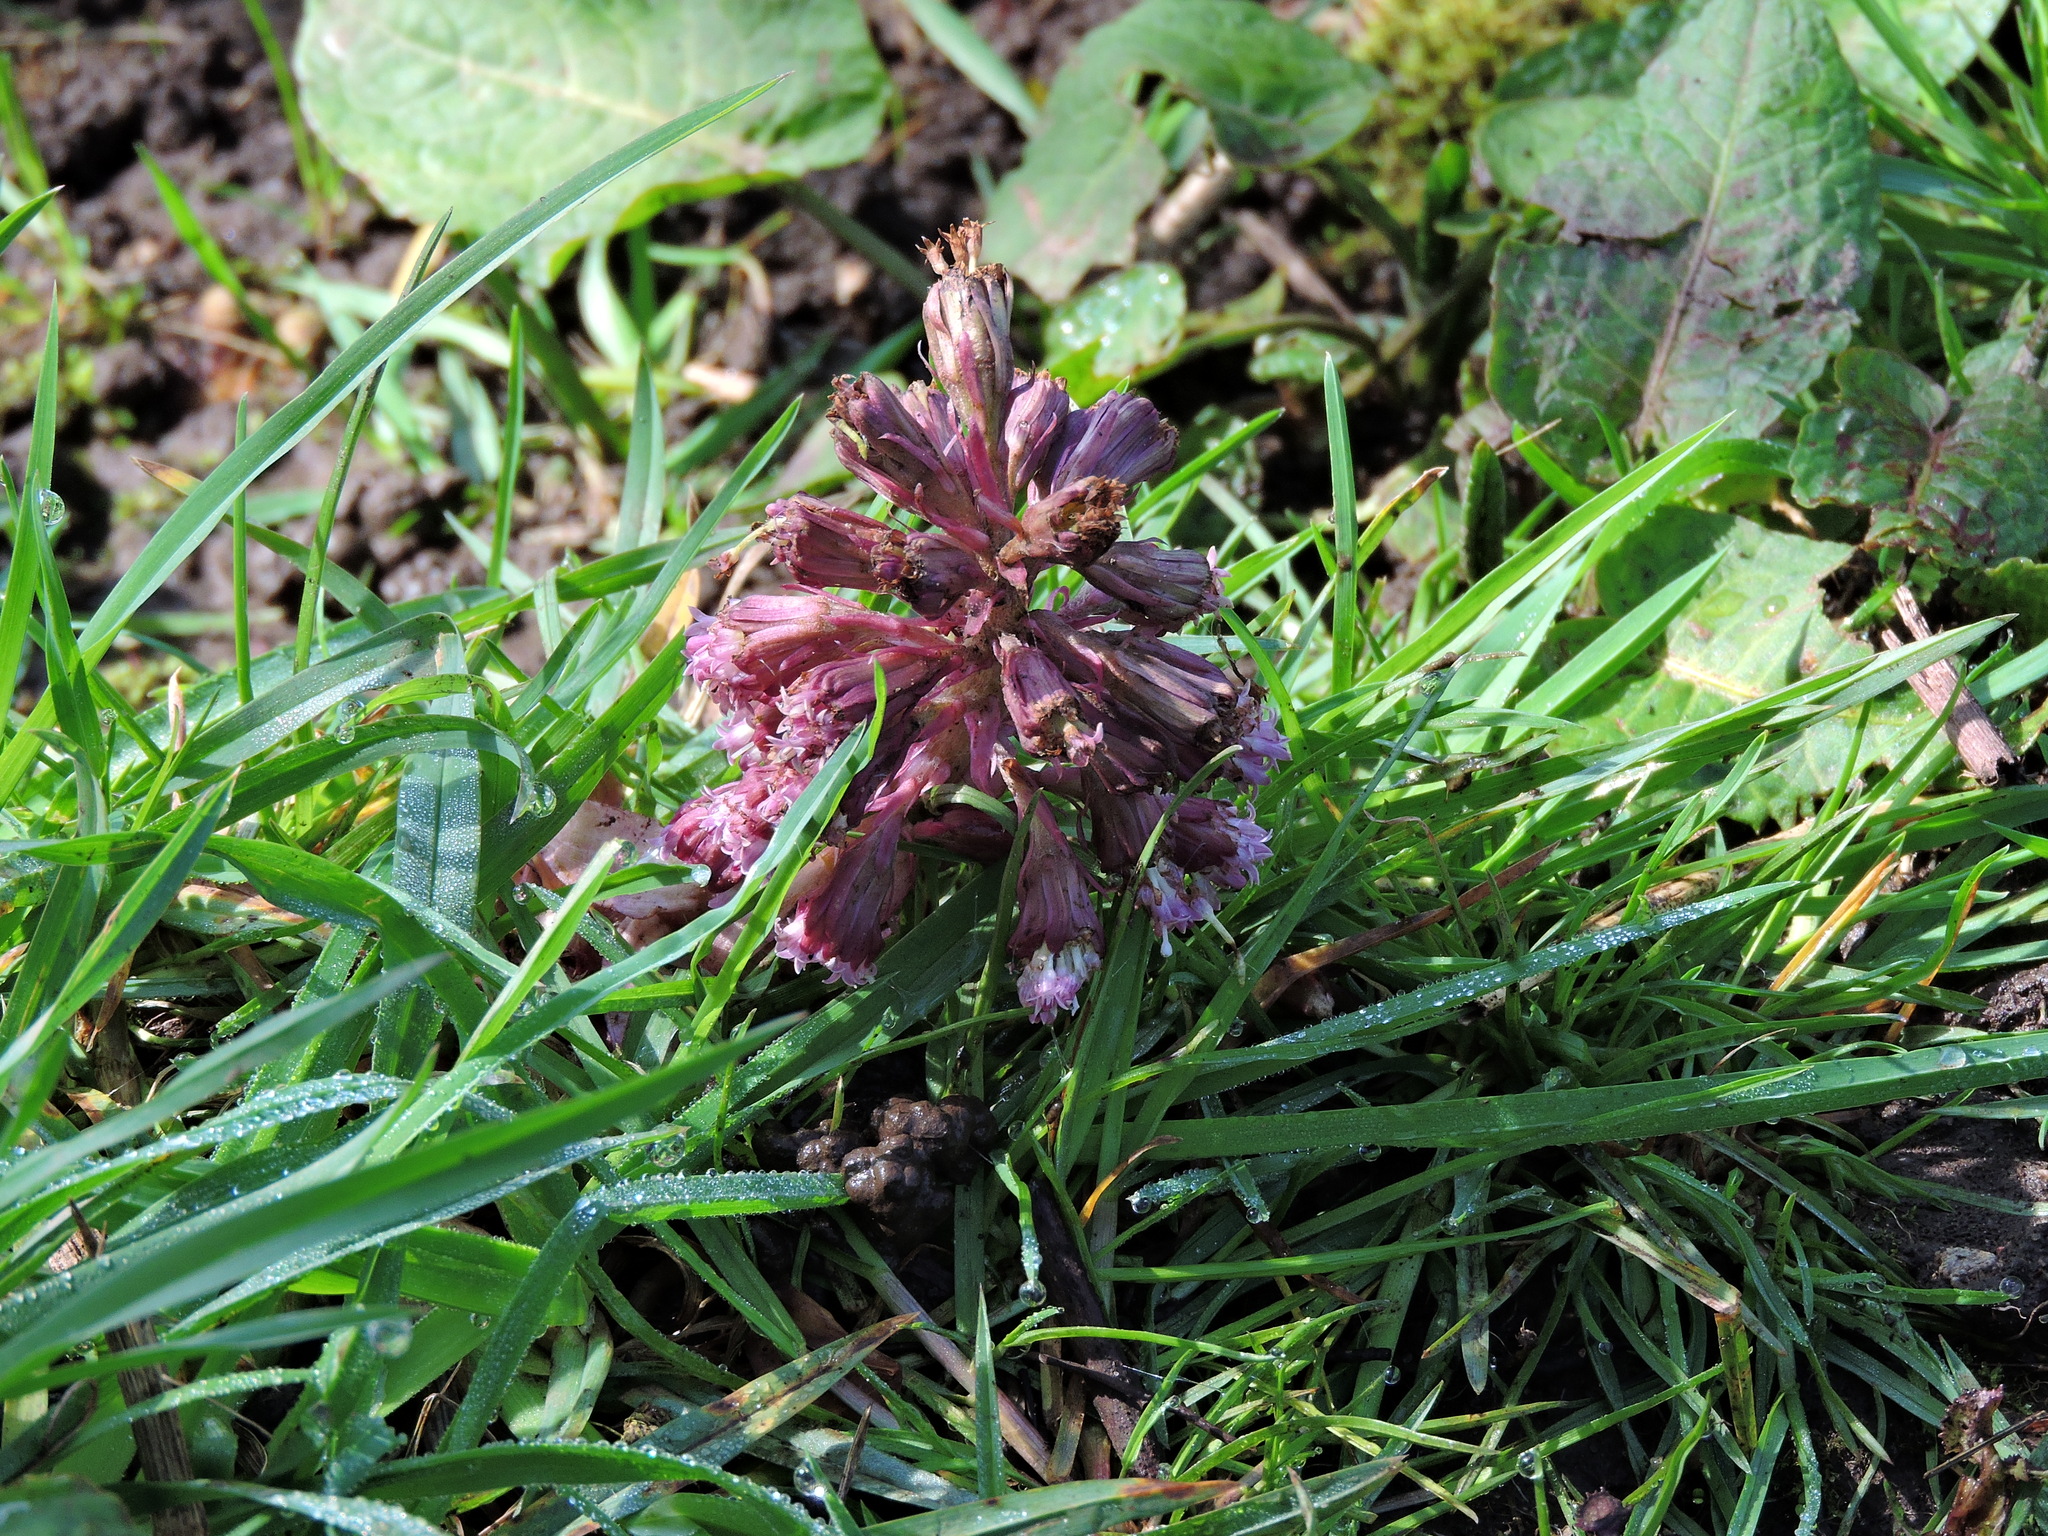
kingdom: Plantae
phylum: Tracheophyta
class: Magnoliopsida
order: Asterales
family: Asteraceae
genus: Petasites
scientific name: Petasites hybridus
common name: Butterbur
